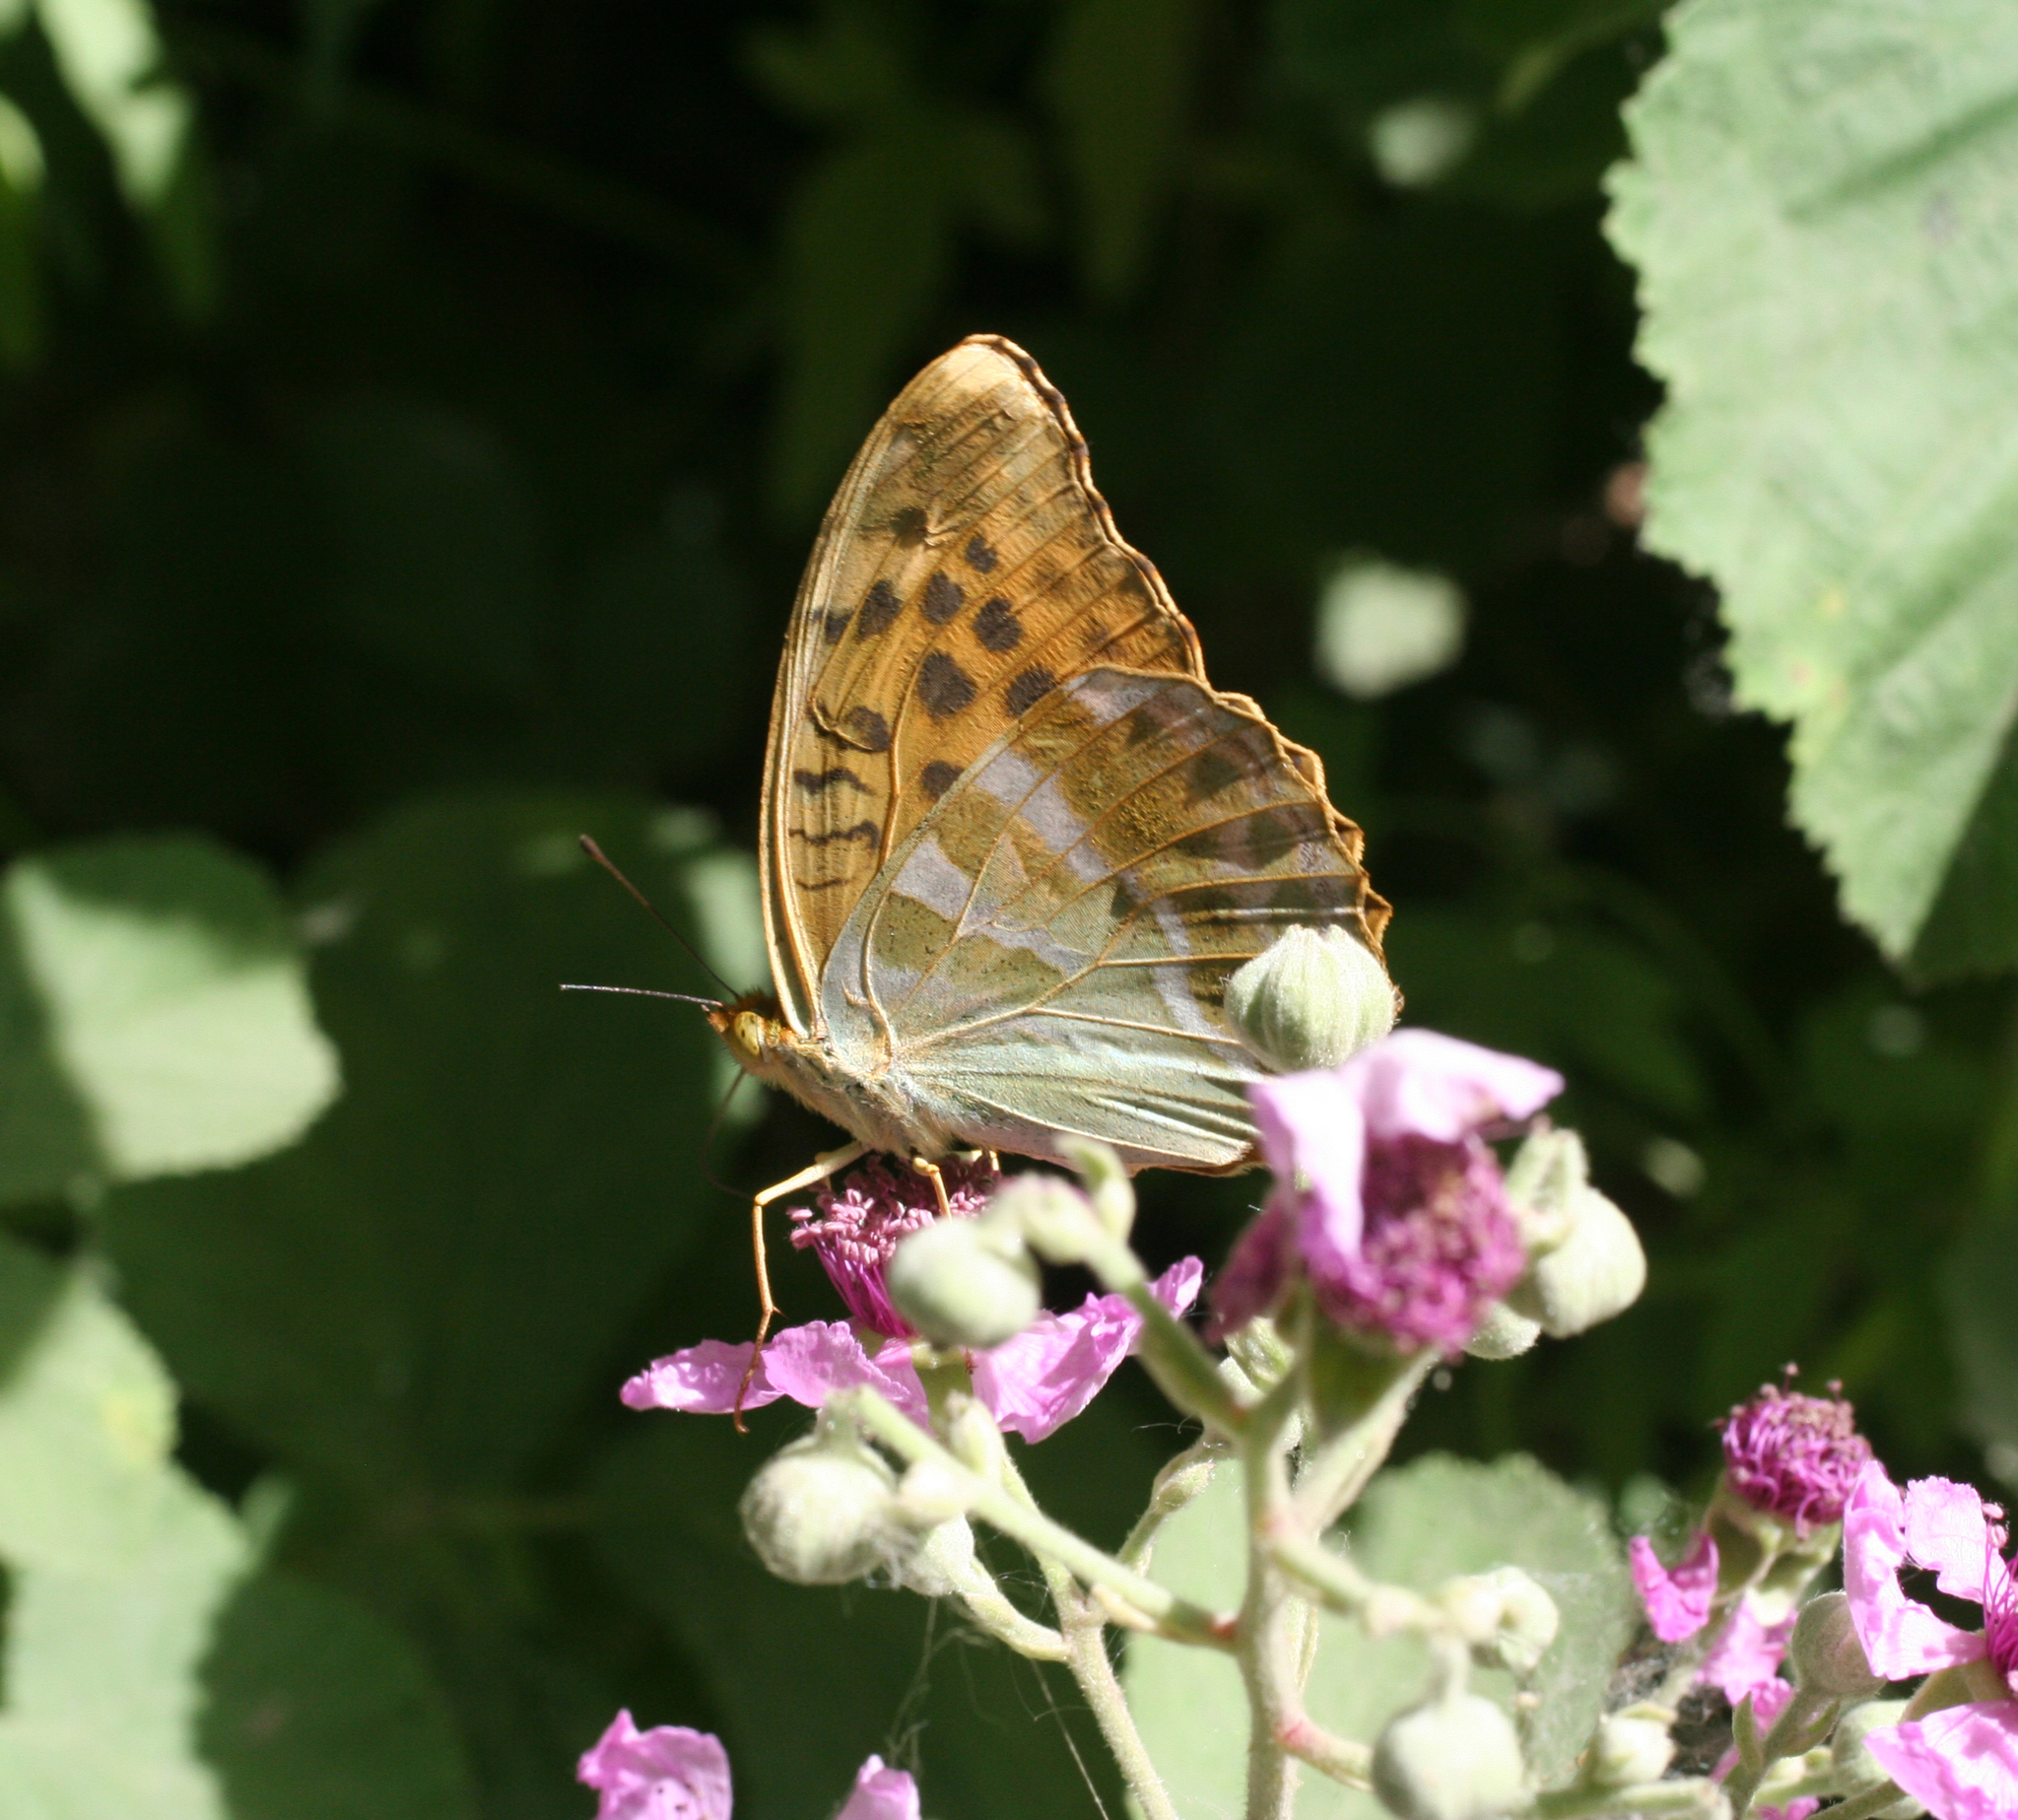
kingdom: Plantae
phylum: Tracheophyta
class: Magnoliopsida
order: Rosales
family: Rosaceae
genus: Rubus
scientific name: Rubus sanctus
